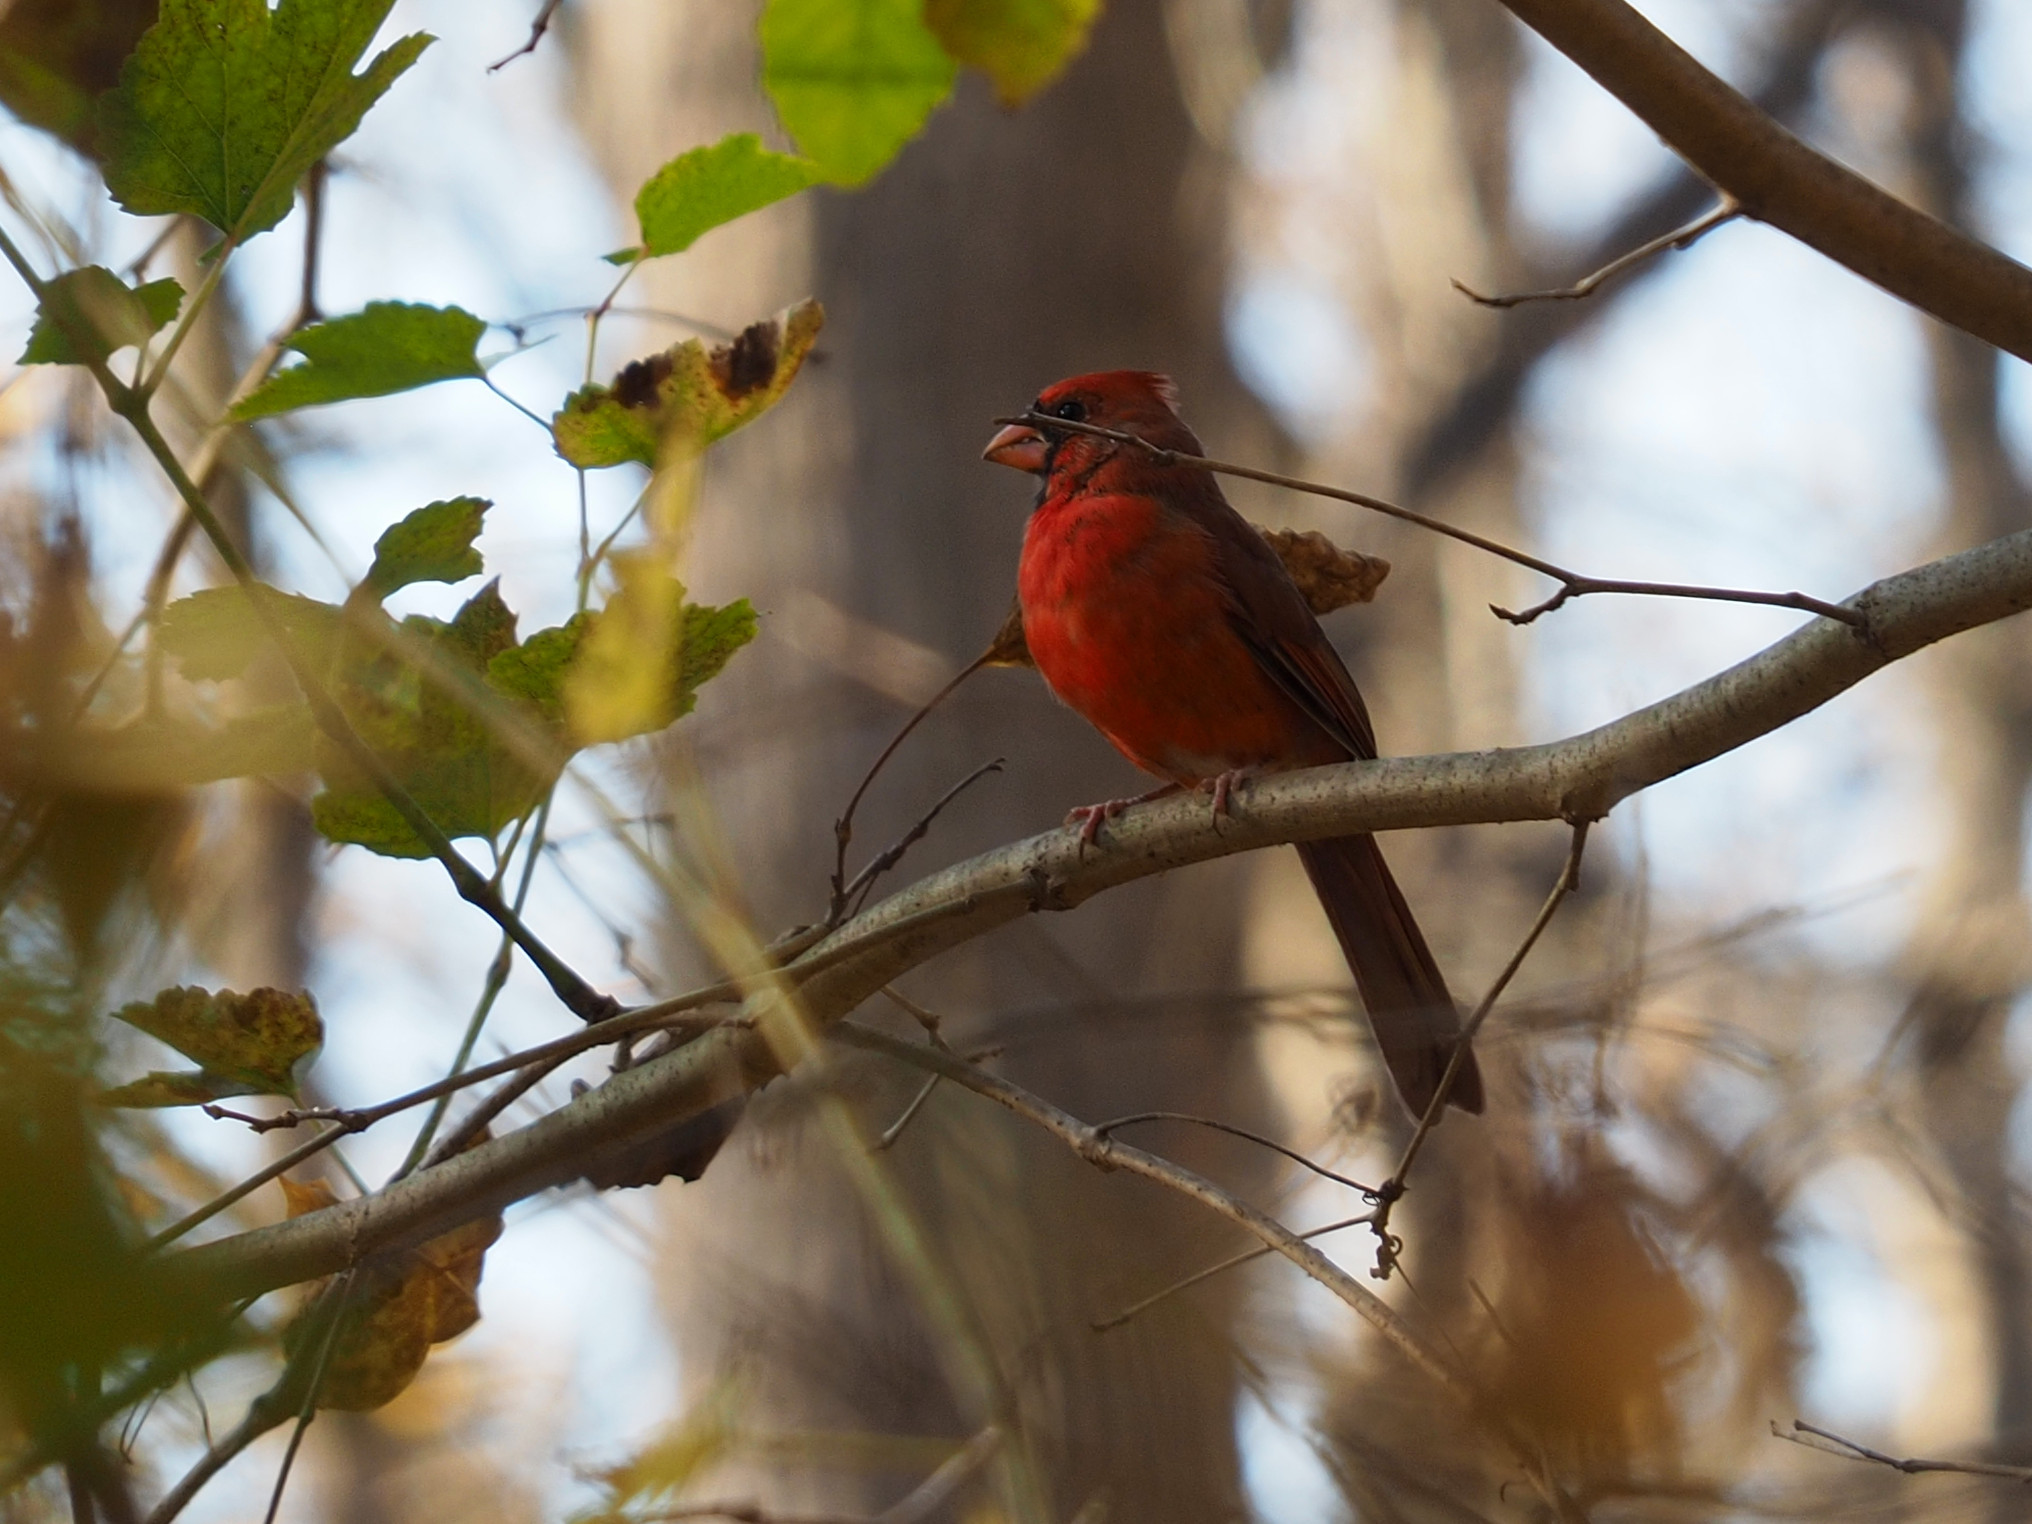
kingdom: Animalia
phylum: Chordata
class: Aves
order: Passeriformes
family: Cardinalidae
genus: Cardinalis
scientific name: Cardinalis cardinalis
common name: Northern cardinal
